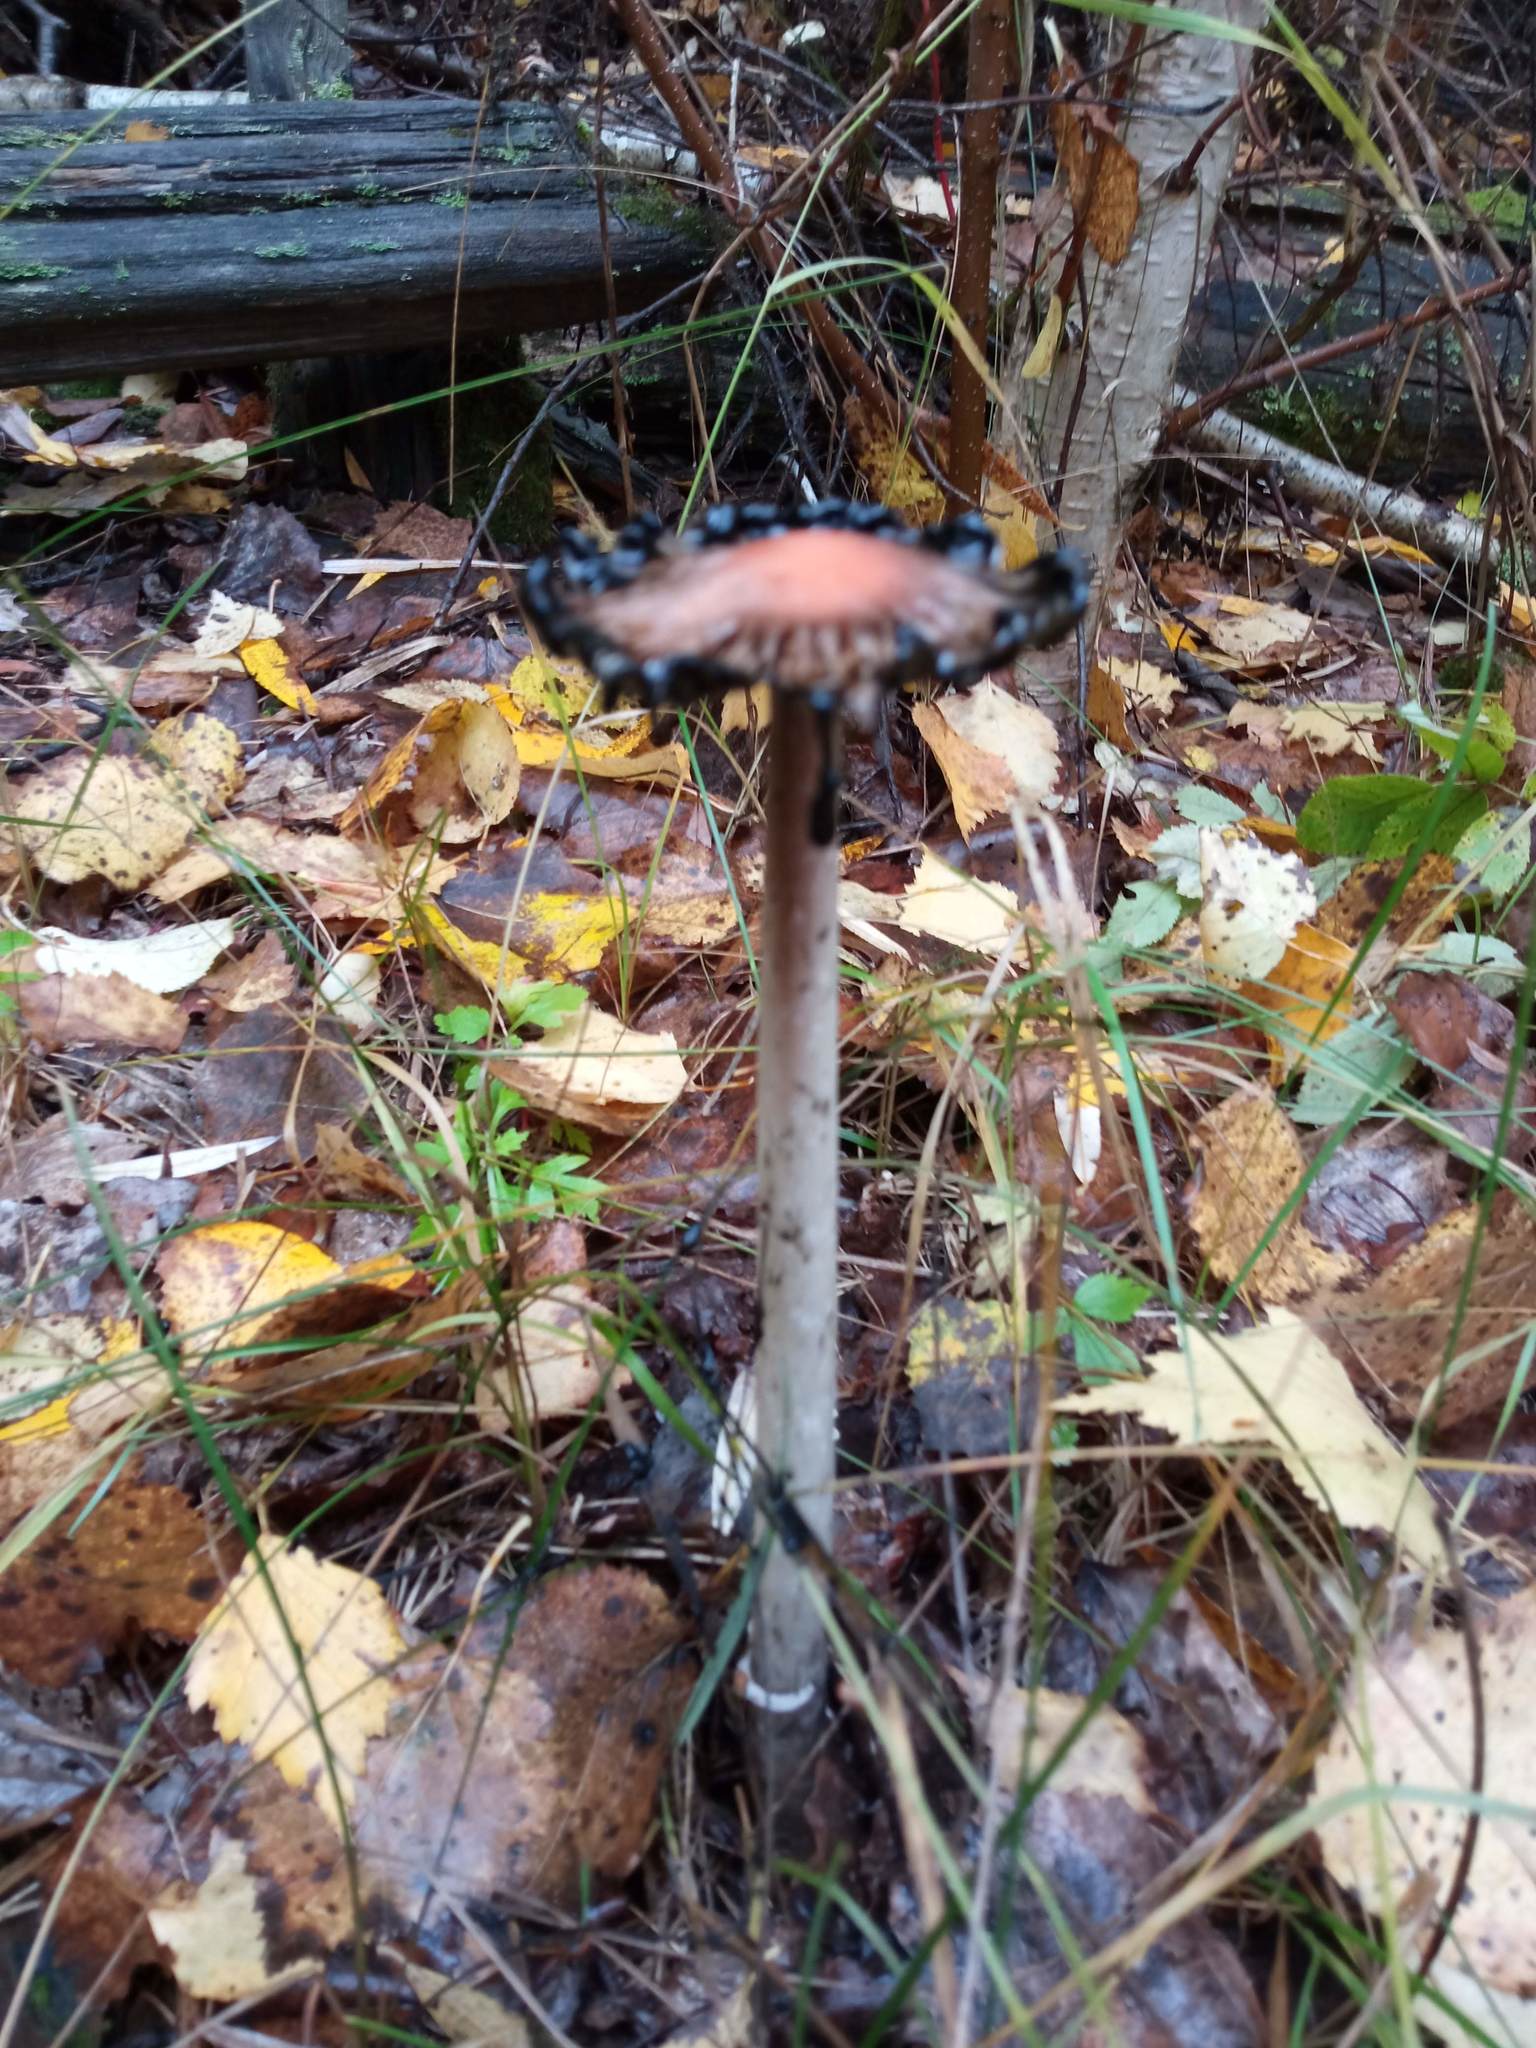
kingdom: Fungi
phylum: Basidiomycota
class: Agaricomycetes
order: Agaricales
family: Agaricaceae
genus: Coprinus
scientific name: Coprinus comatus
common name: Lawyer's wig
